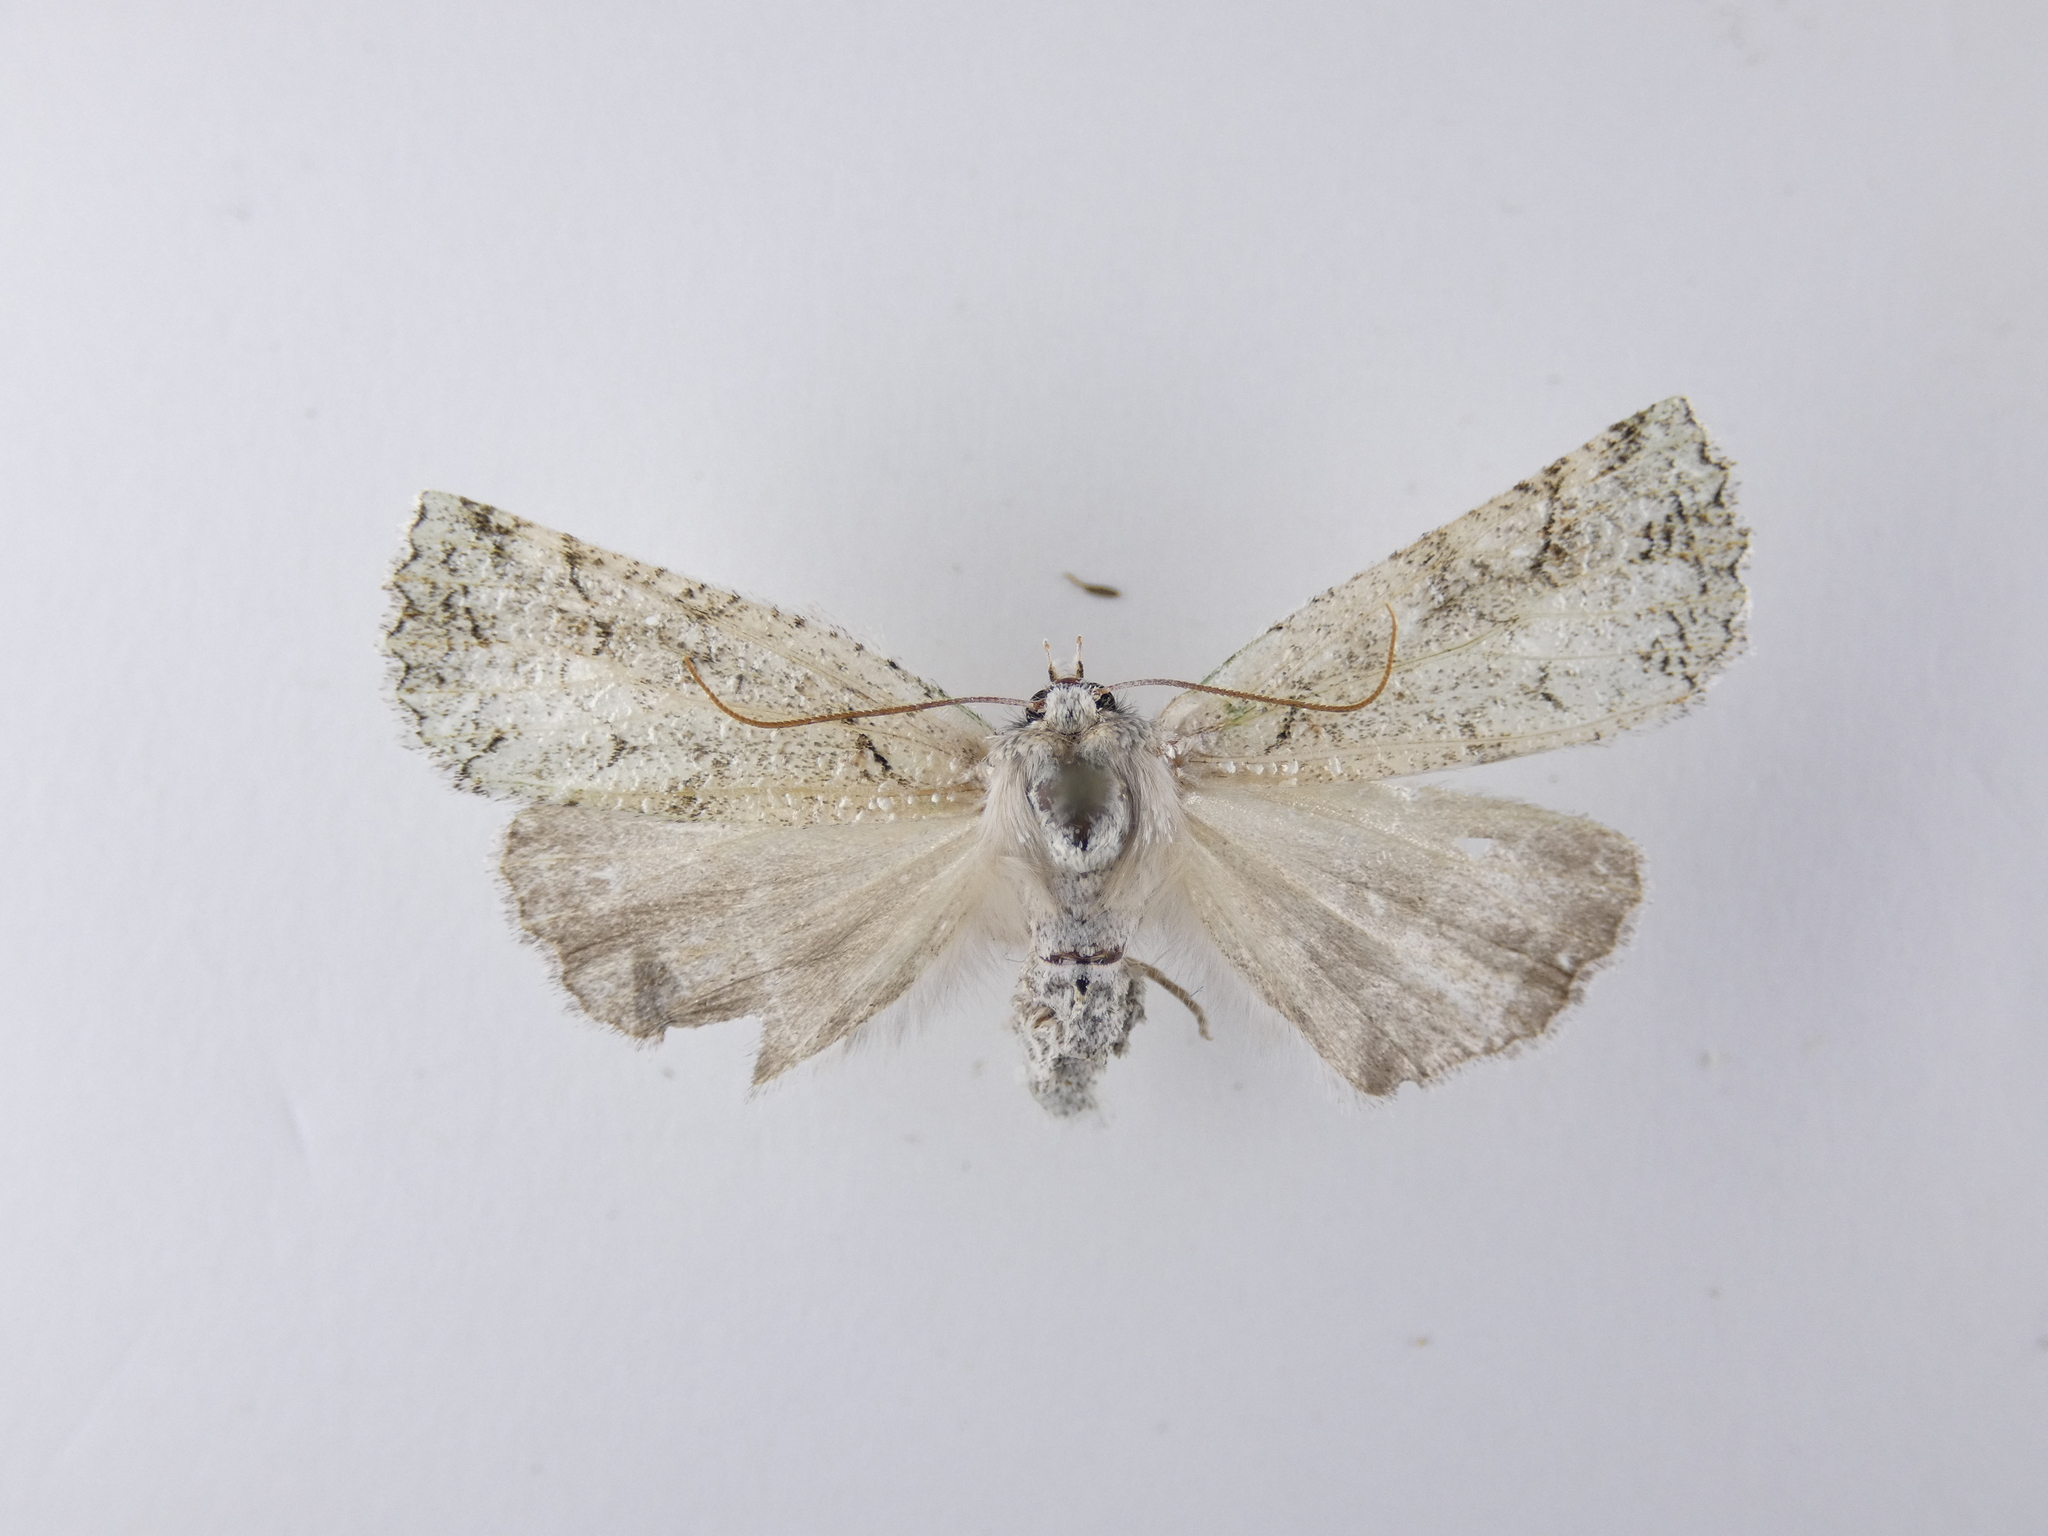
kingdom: Animalia
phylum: Arthropoda
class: Insecta
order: Lepidoptera
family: Geometridae
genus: Declana
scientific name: Declana floccosa
